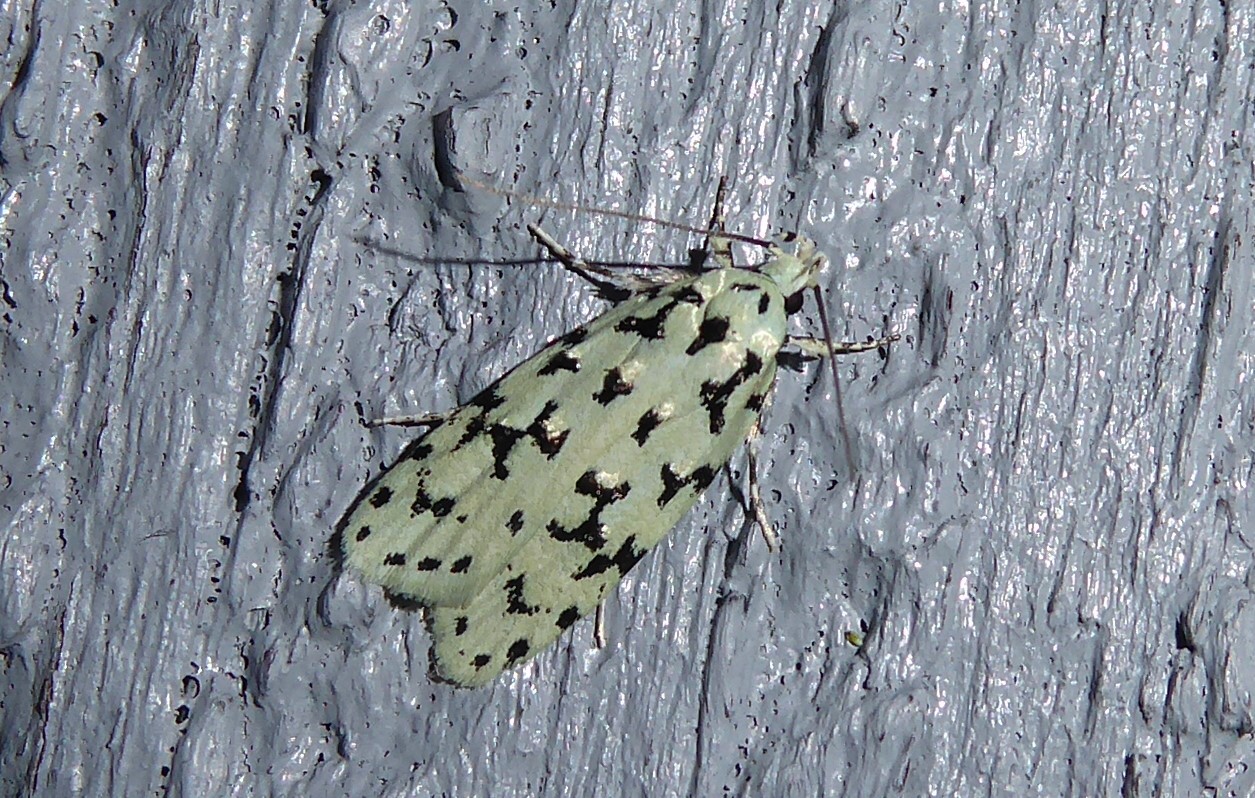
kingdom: Animalia
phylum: Arthropoda
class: Insecta
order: Lepidoptera
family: Oecophoridae
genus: Izatha
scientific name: Izatha huttoni
